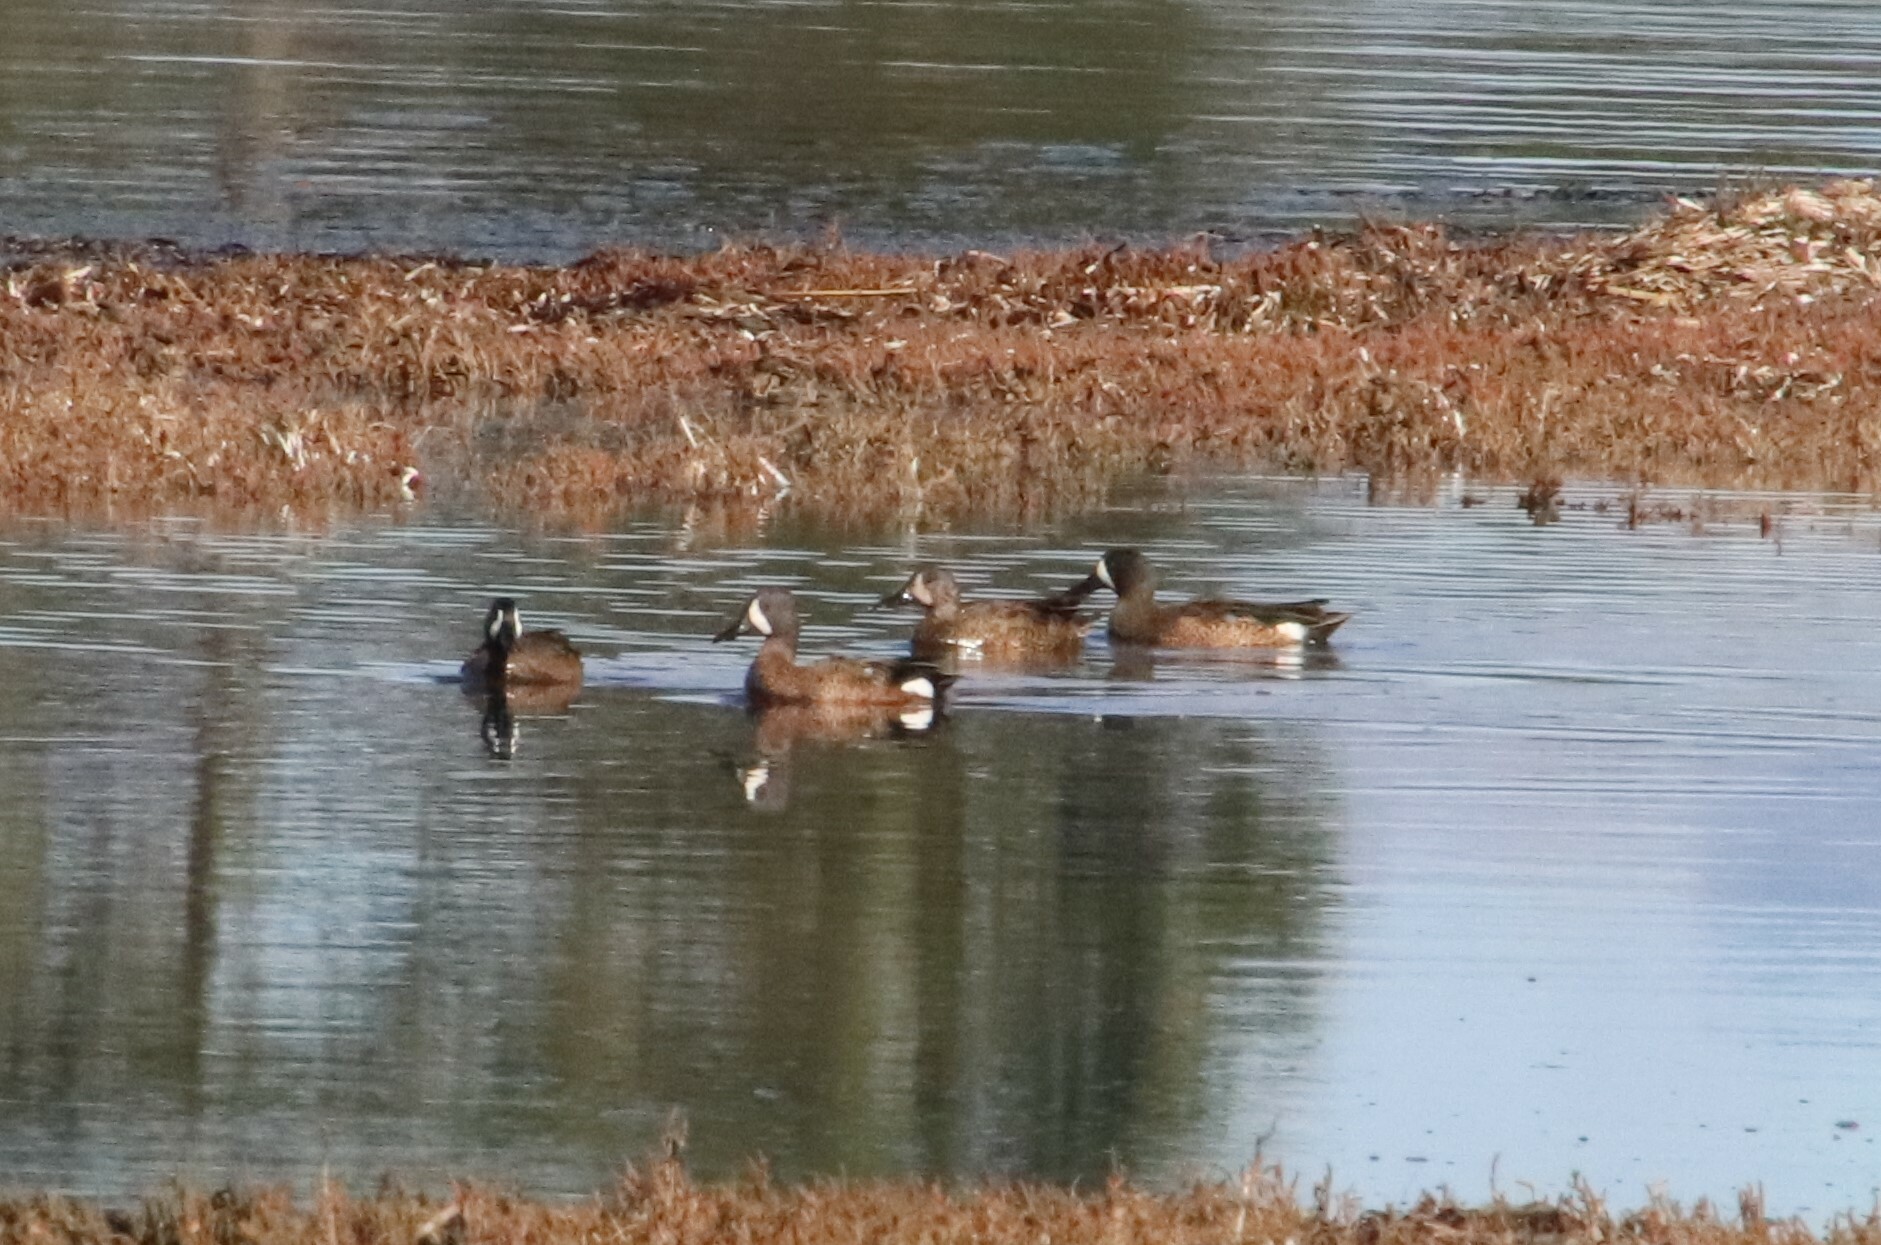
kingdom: Animalia
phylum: Chordata
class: Aves
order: Anseriformes
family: Anatidae
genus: Spatula
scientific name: Spatula discors
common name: Blue-winged teal
